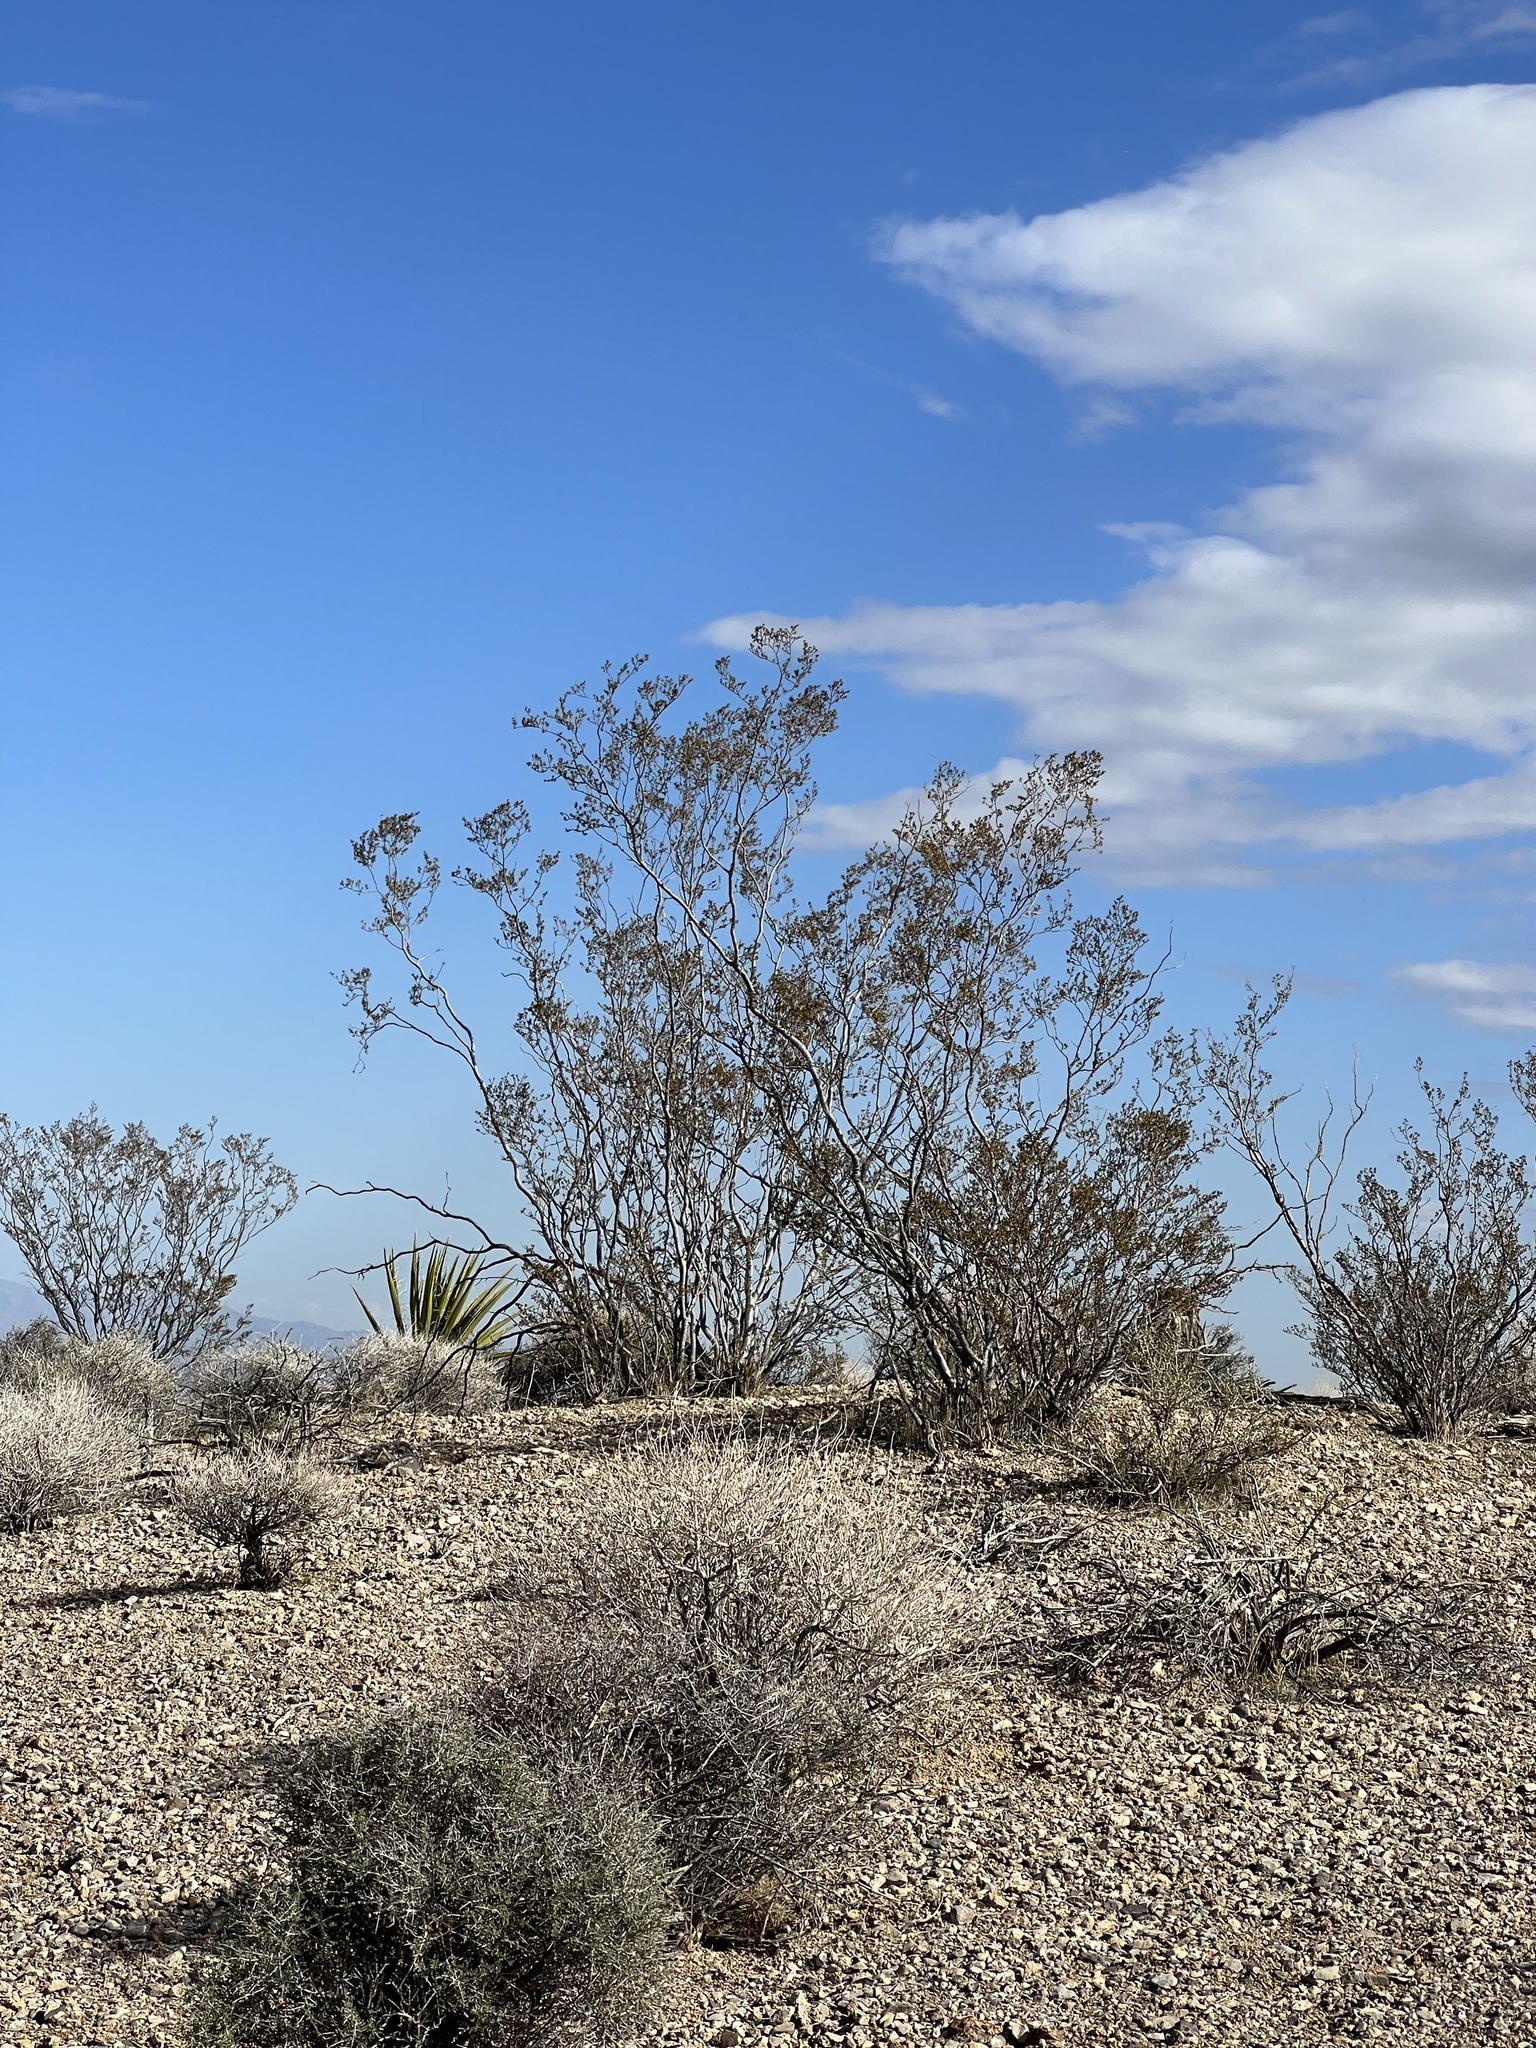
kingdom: Plantae
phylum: Tracheophyta
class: Magnoliopsida
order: Zygophyllales
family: Zygophyllaceae
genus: Larrea
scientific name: Larrea tridentata
